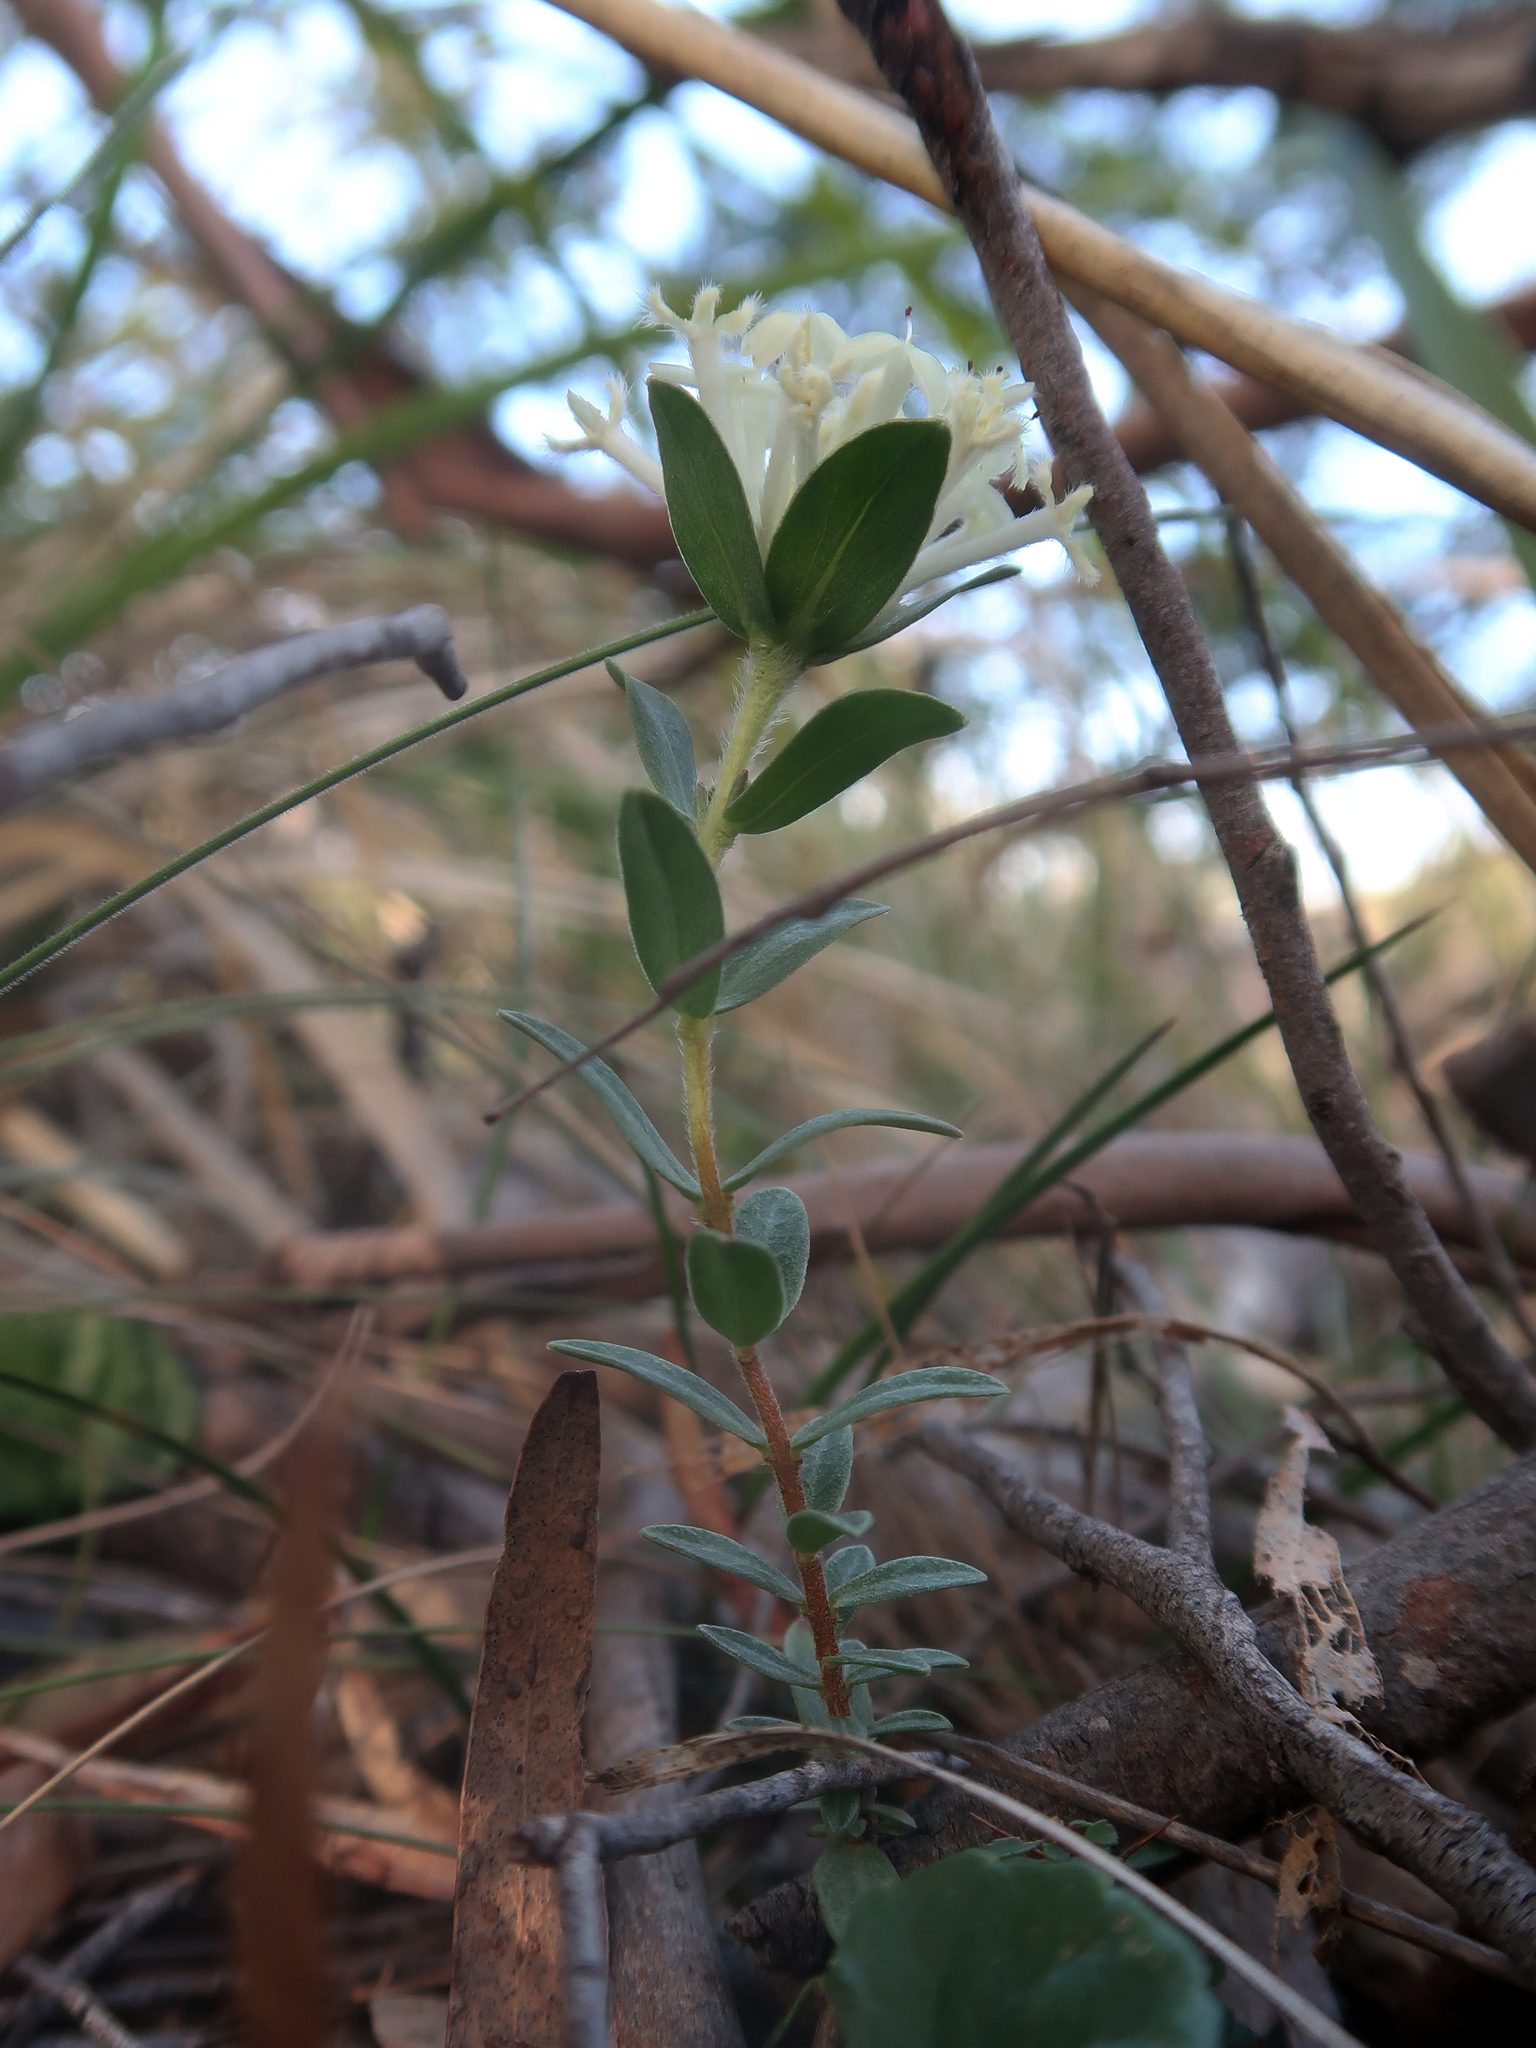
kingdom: Plantae
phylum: Tracheophyta
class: Magnoliopsida
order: Malvales
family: Thymelaeaceae
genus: Pimelea
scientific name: Pimelea humilis
